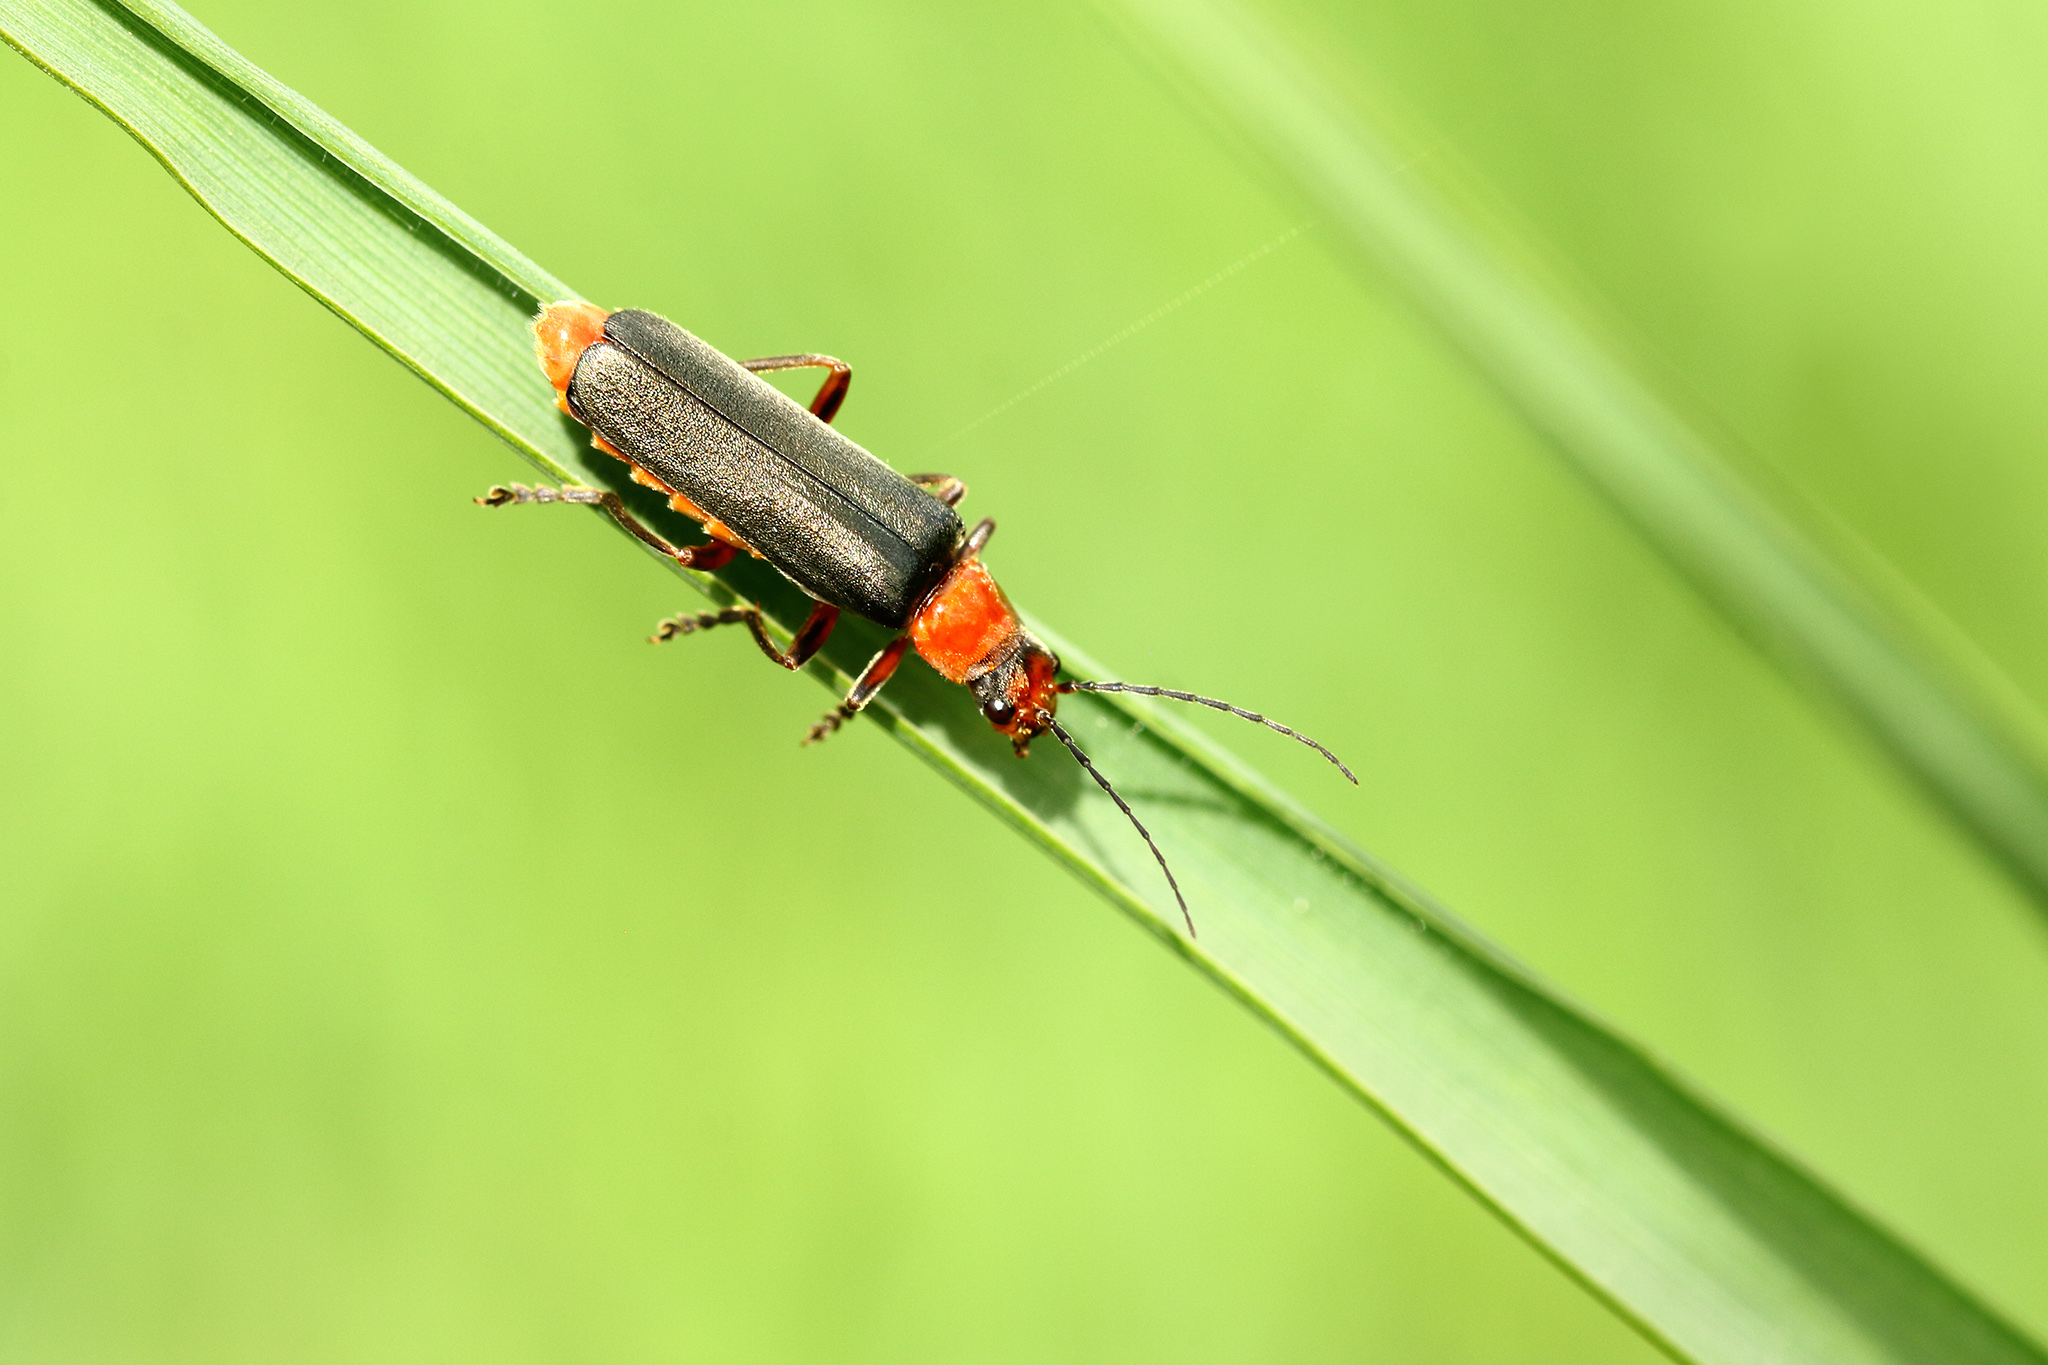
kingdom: Animalia
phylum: Arthropoda
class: Insecta
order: Coleoptera
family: Cantharidae
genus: Cantharis
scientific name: Cantharis pellucida
